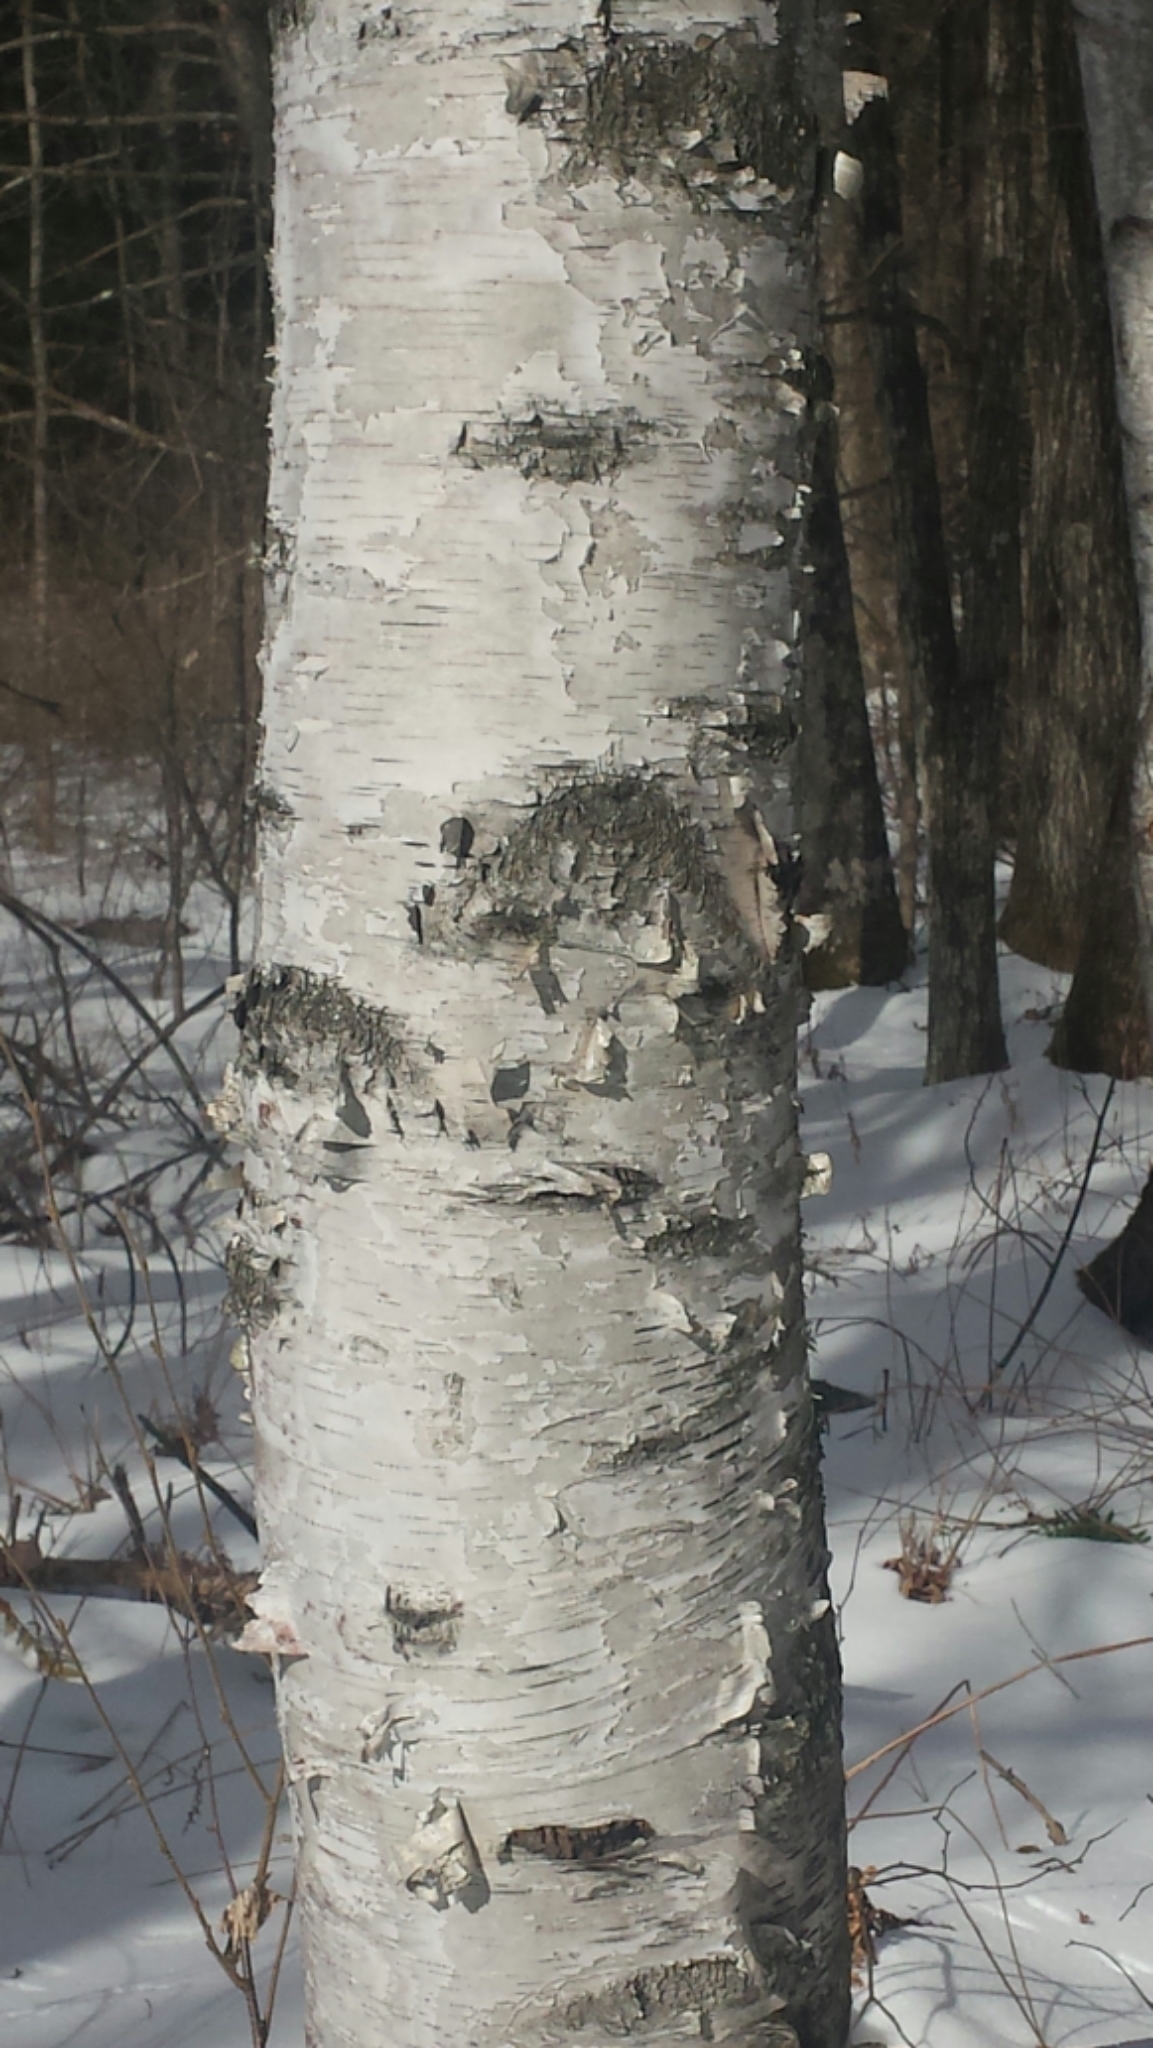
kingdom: Plantae
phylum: Tracheophyta
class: Magnoliopsida
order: Fagales
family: Betulaceae
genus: Betula
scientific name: Betula papyrifera
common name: Paper birch
